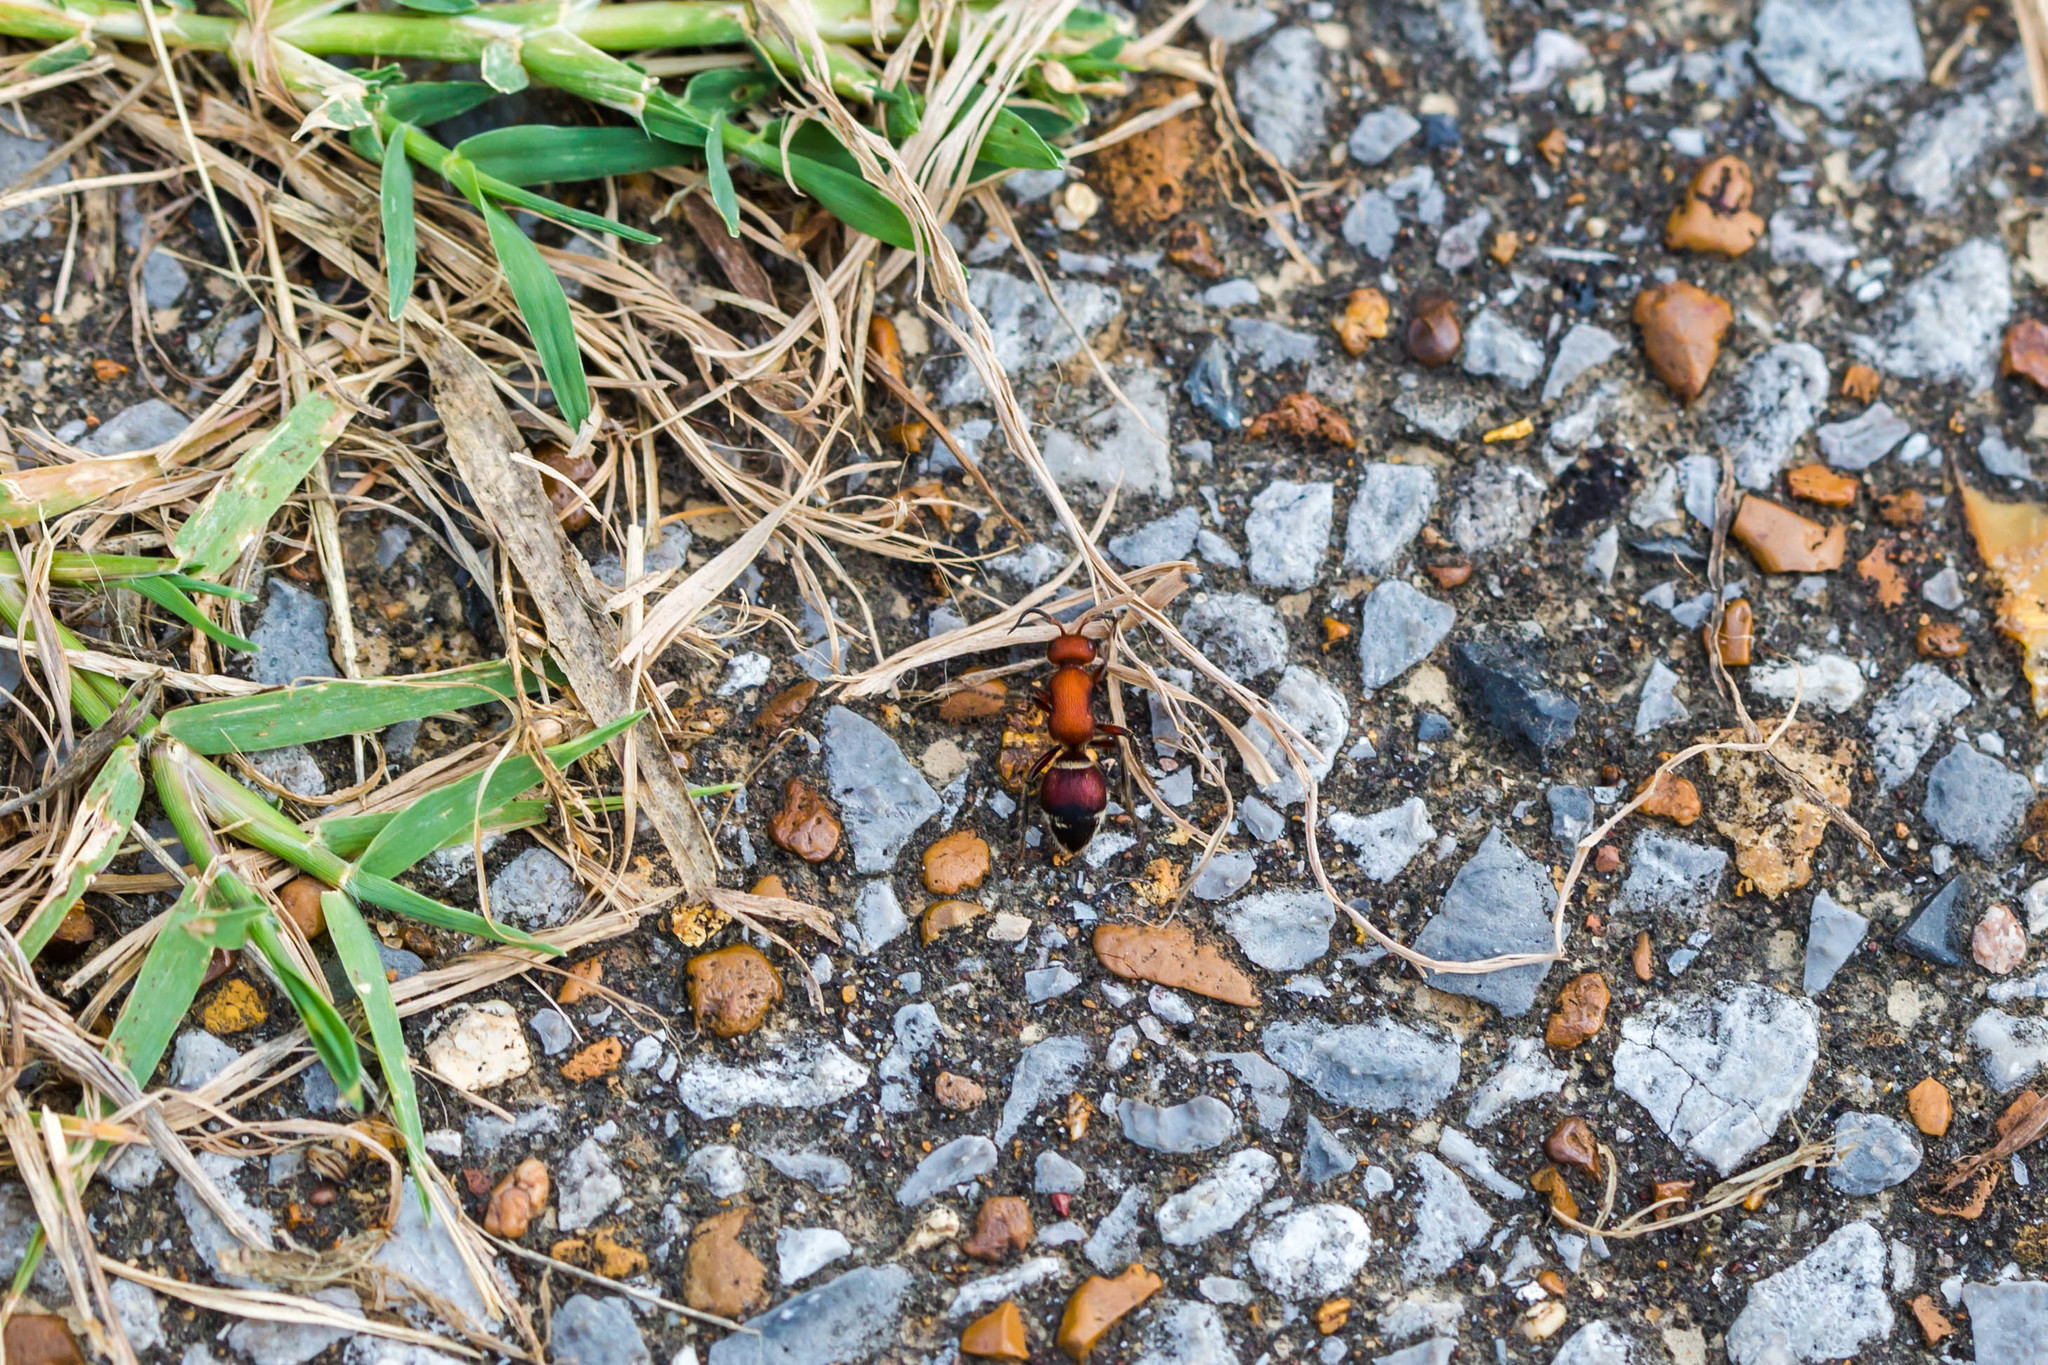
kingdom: Animalia
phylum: Arthropoda
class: Insecta
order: Hymenoptera
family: Mutillidae
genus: Timulla
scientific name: Timulla
